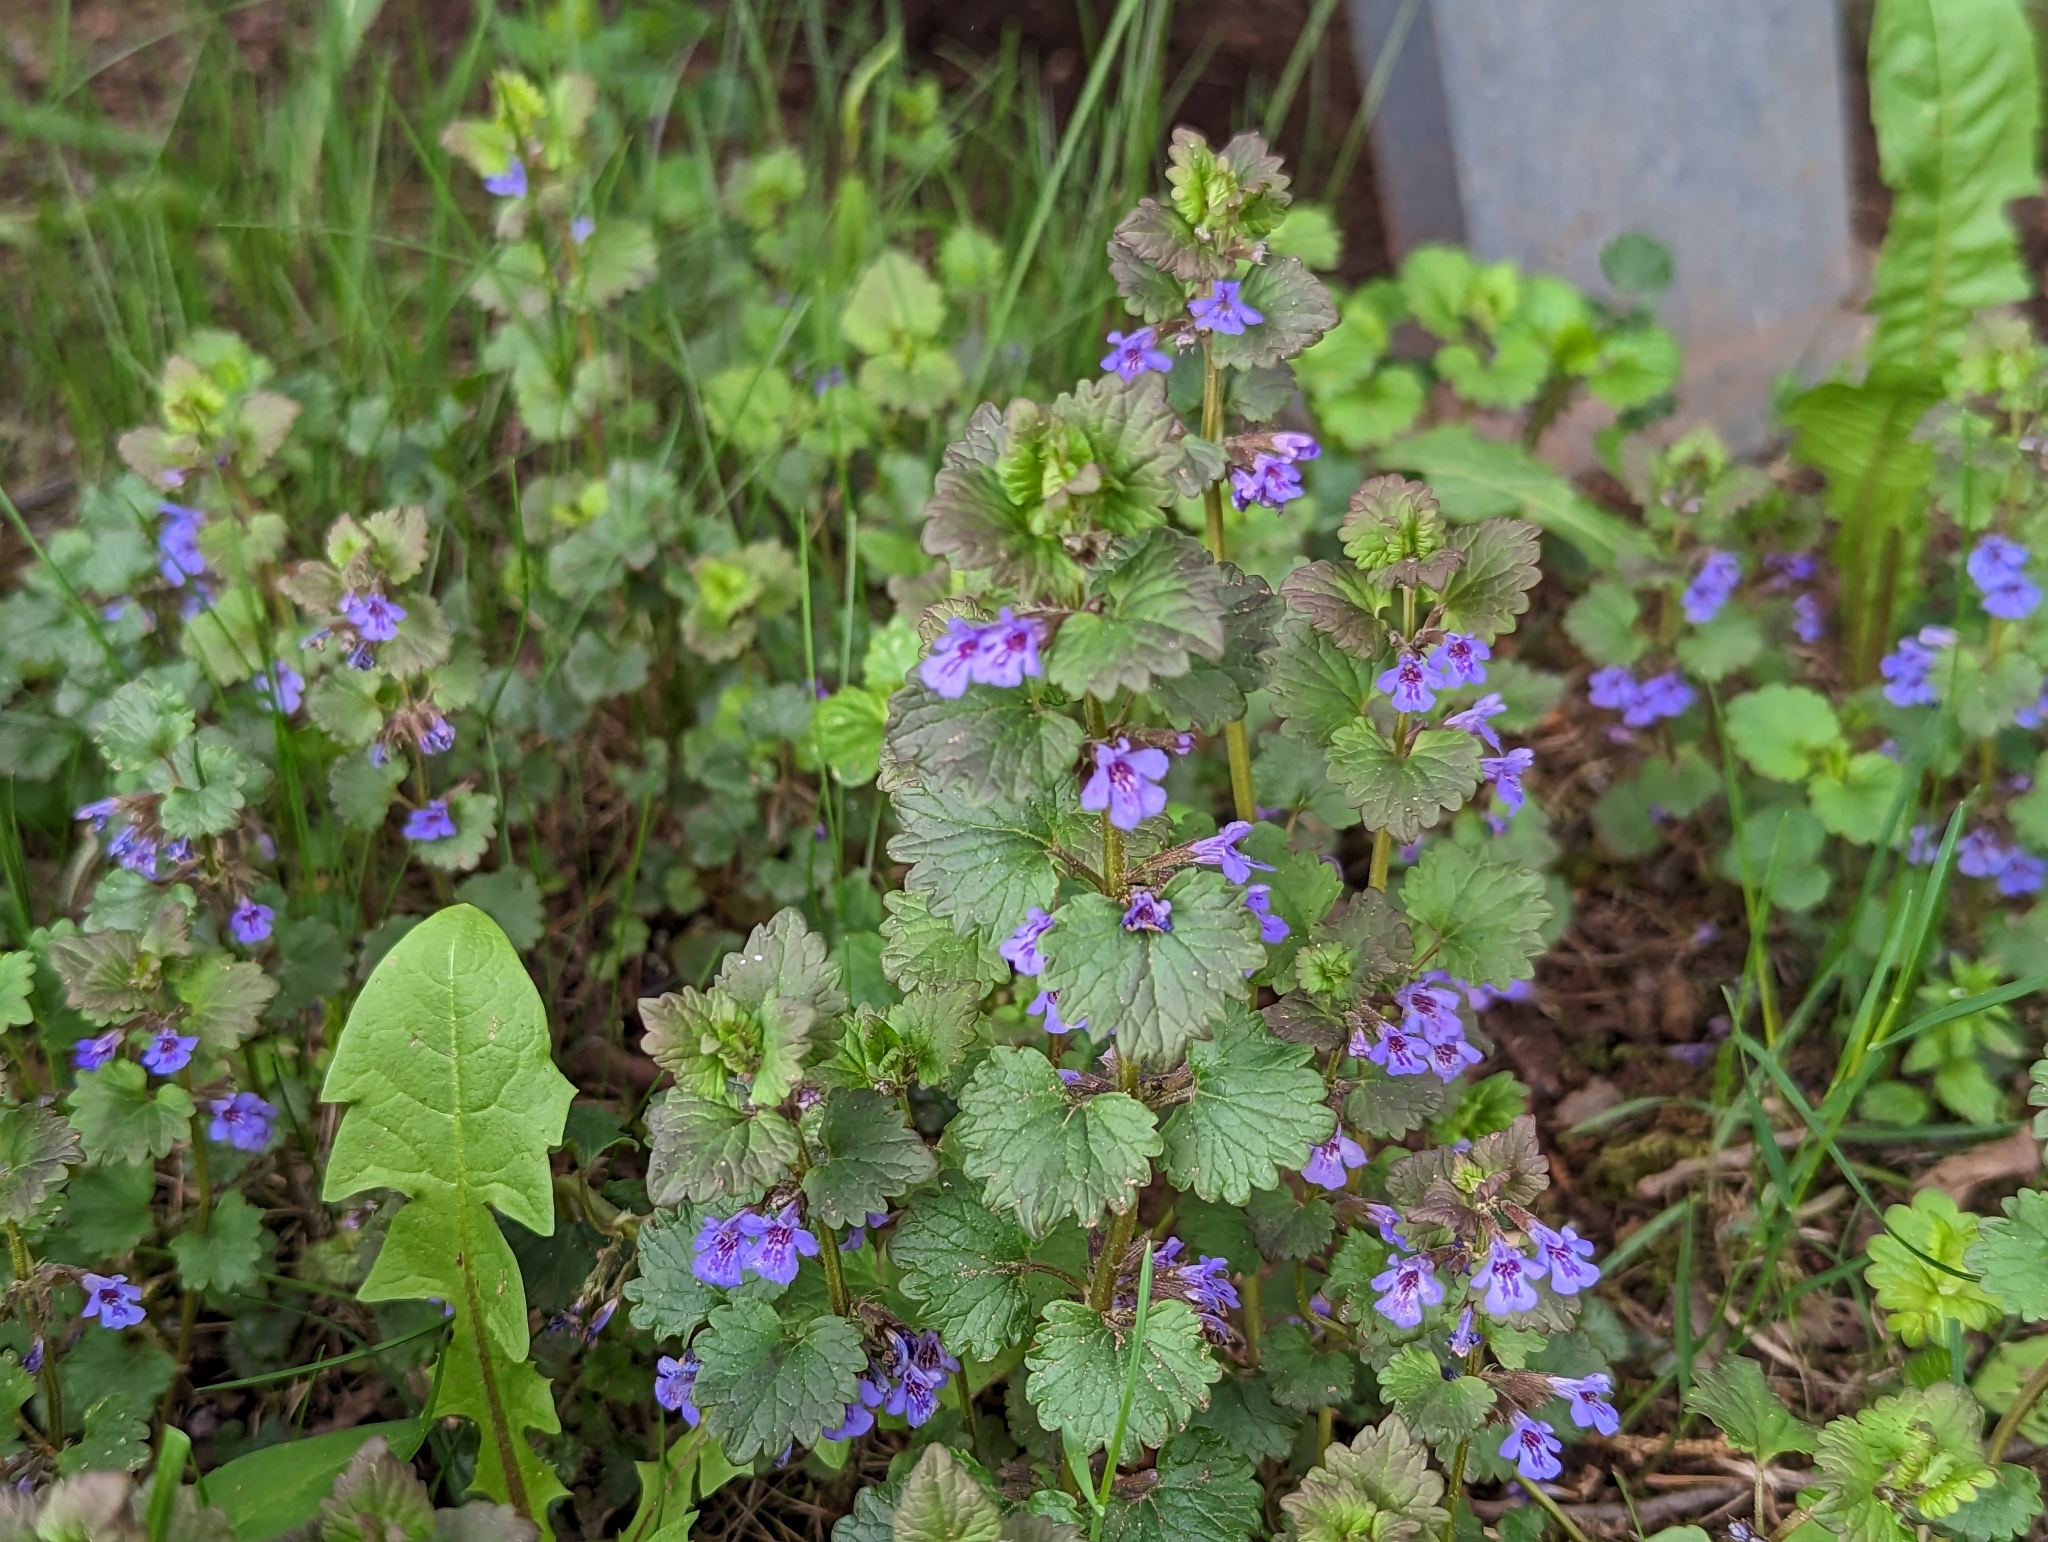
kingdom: Plantae
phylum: Tracheophyta
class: Magnoliopsida
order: Lamiales
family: Lamiaceae
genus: Glechoma
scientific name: Glechoma hederacea
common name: Ground ivy
